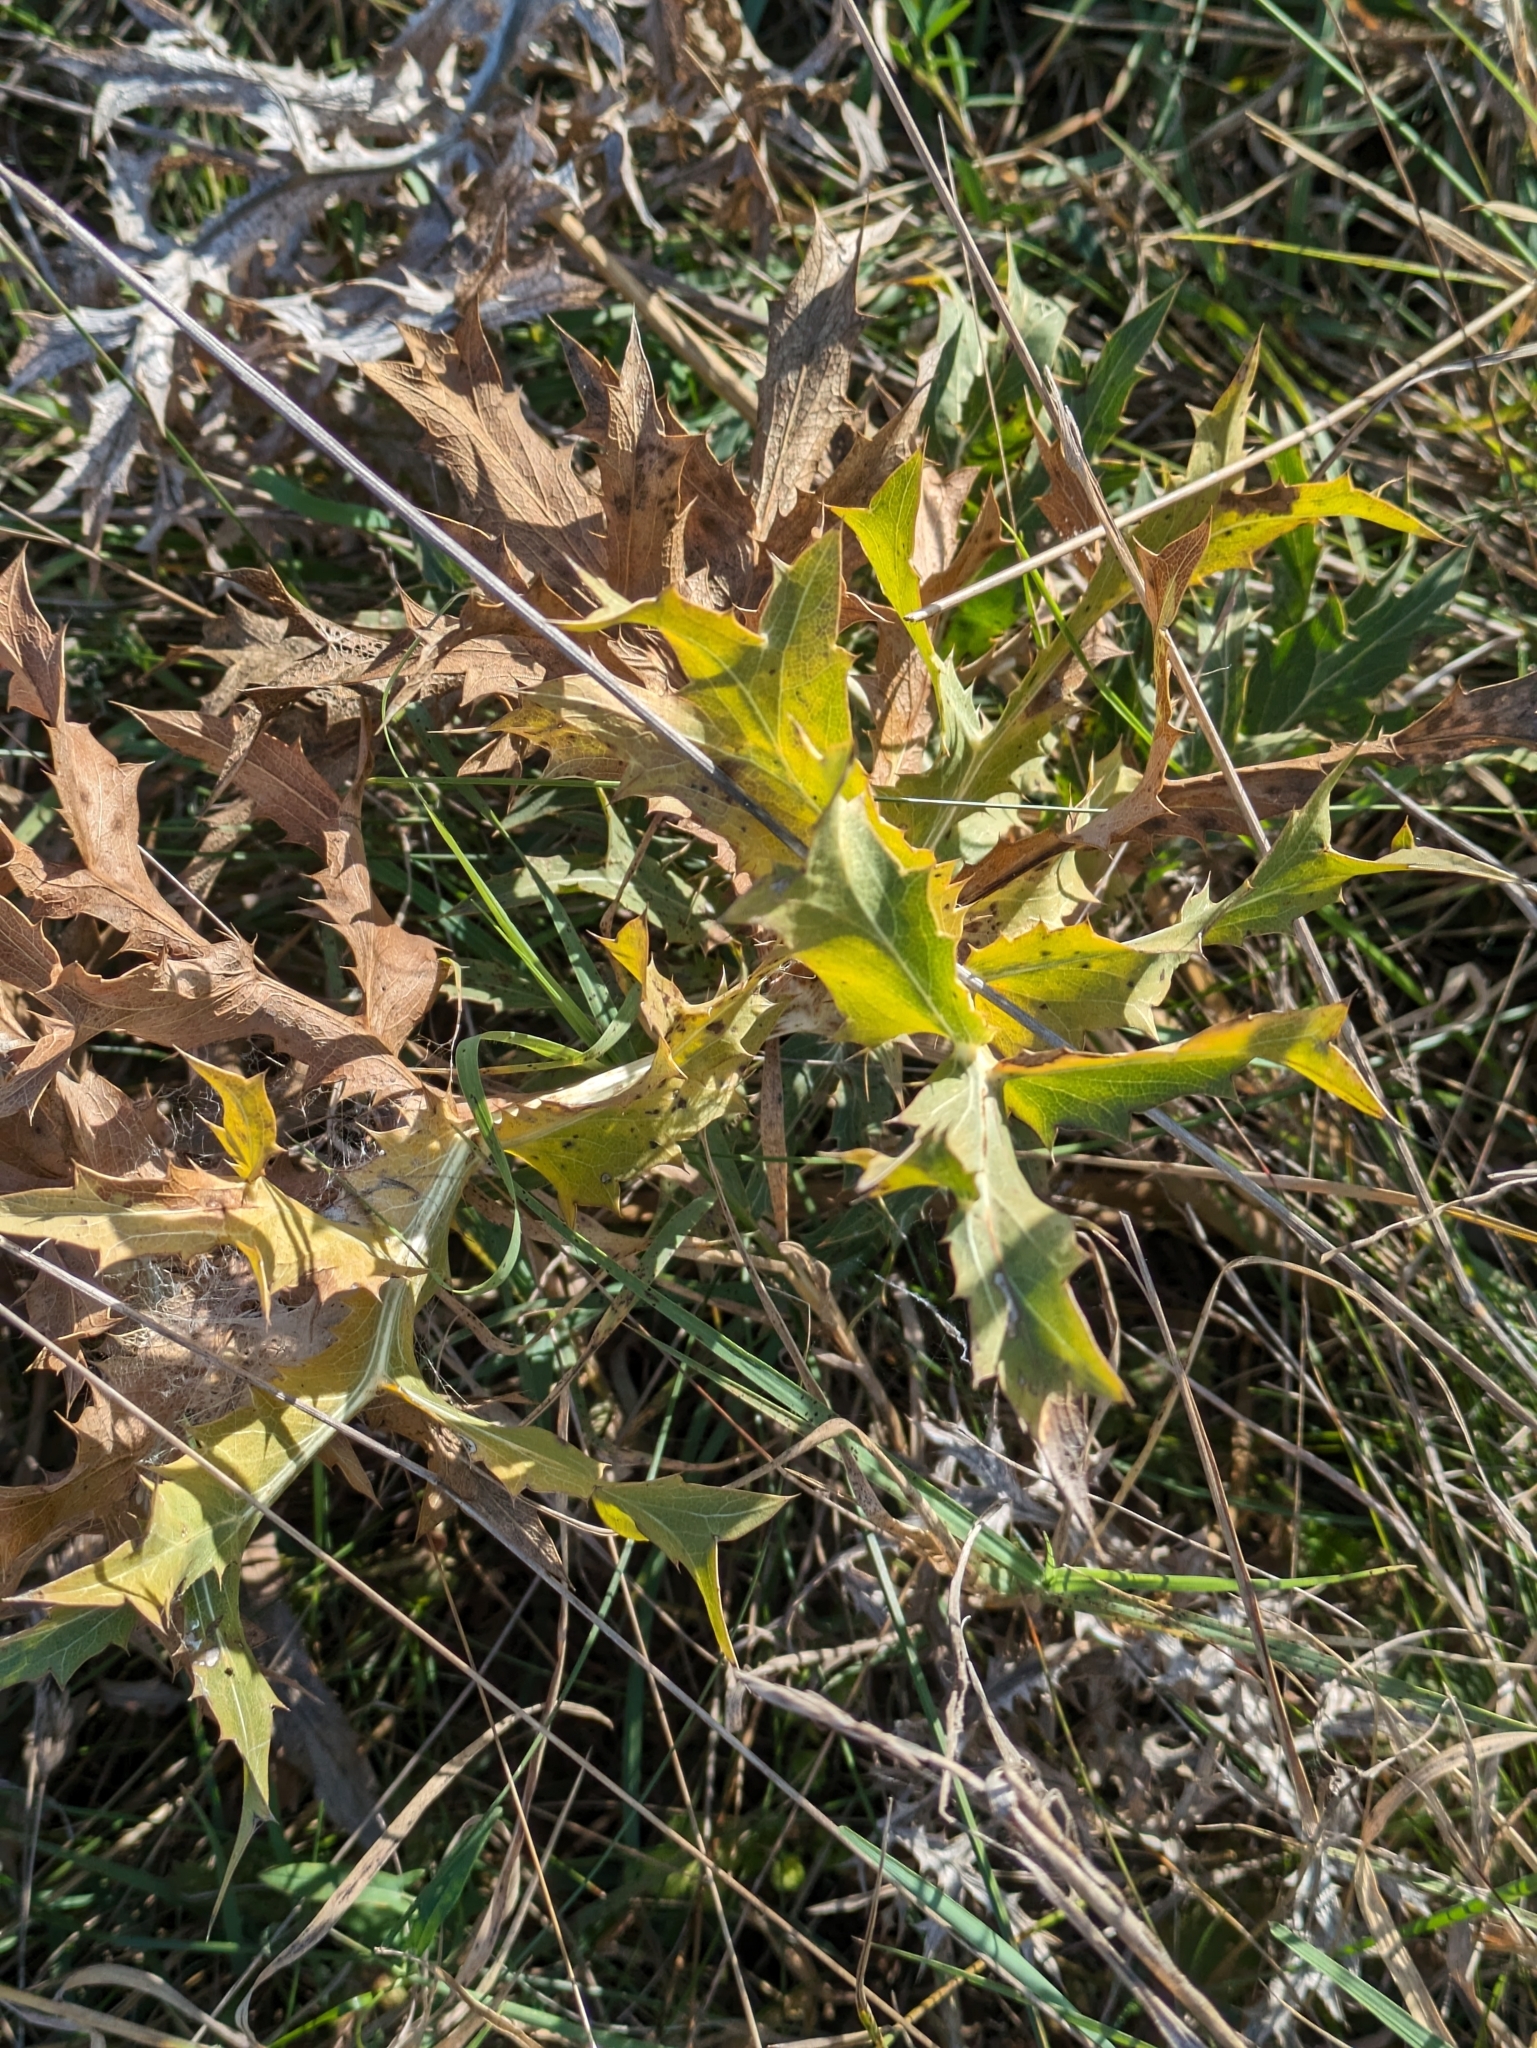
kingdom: Plantae
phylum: Tracheophyta
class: Magnoliopsida
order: Apiales
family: Apiaceae
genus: Eryngium
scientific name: Eryngium campestre
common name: Field eryngo
